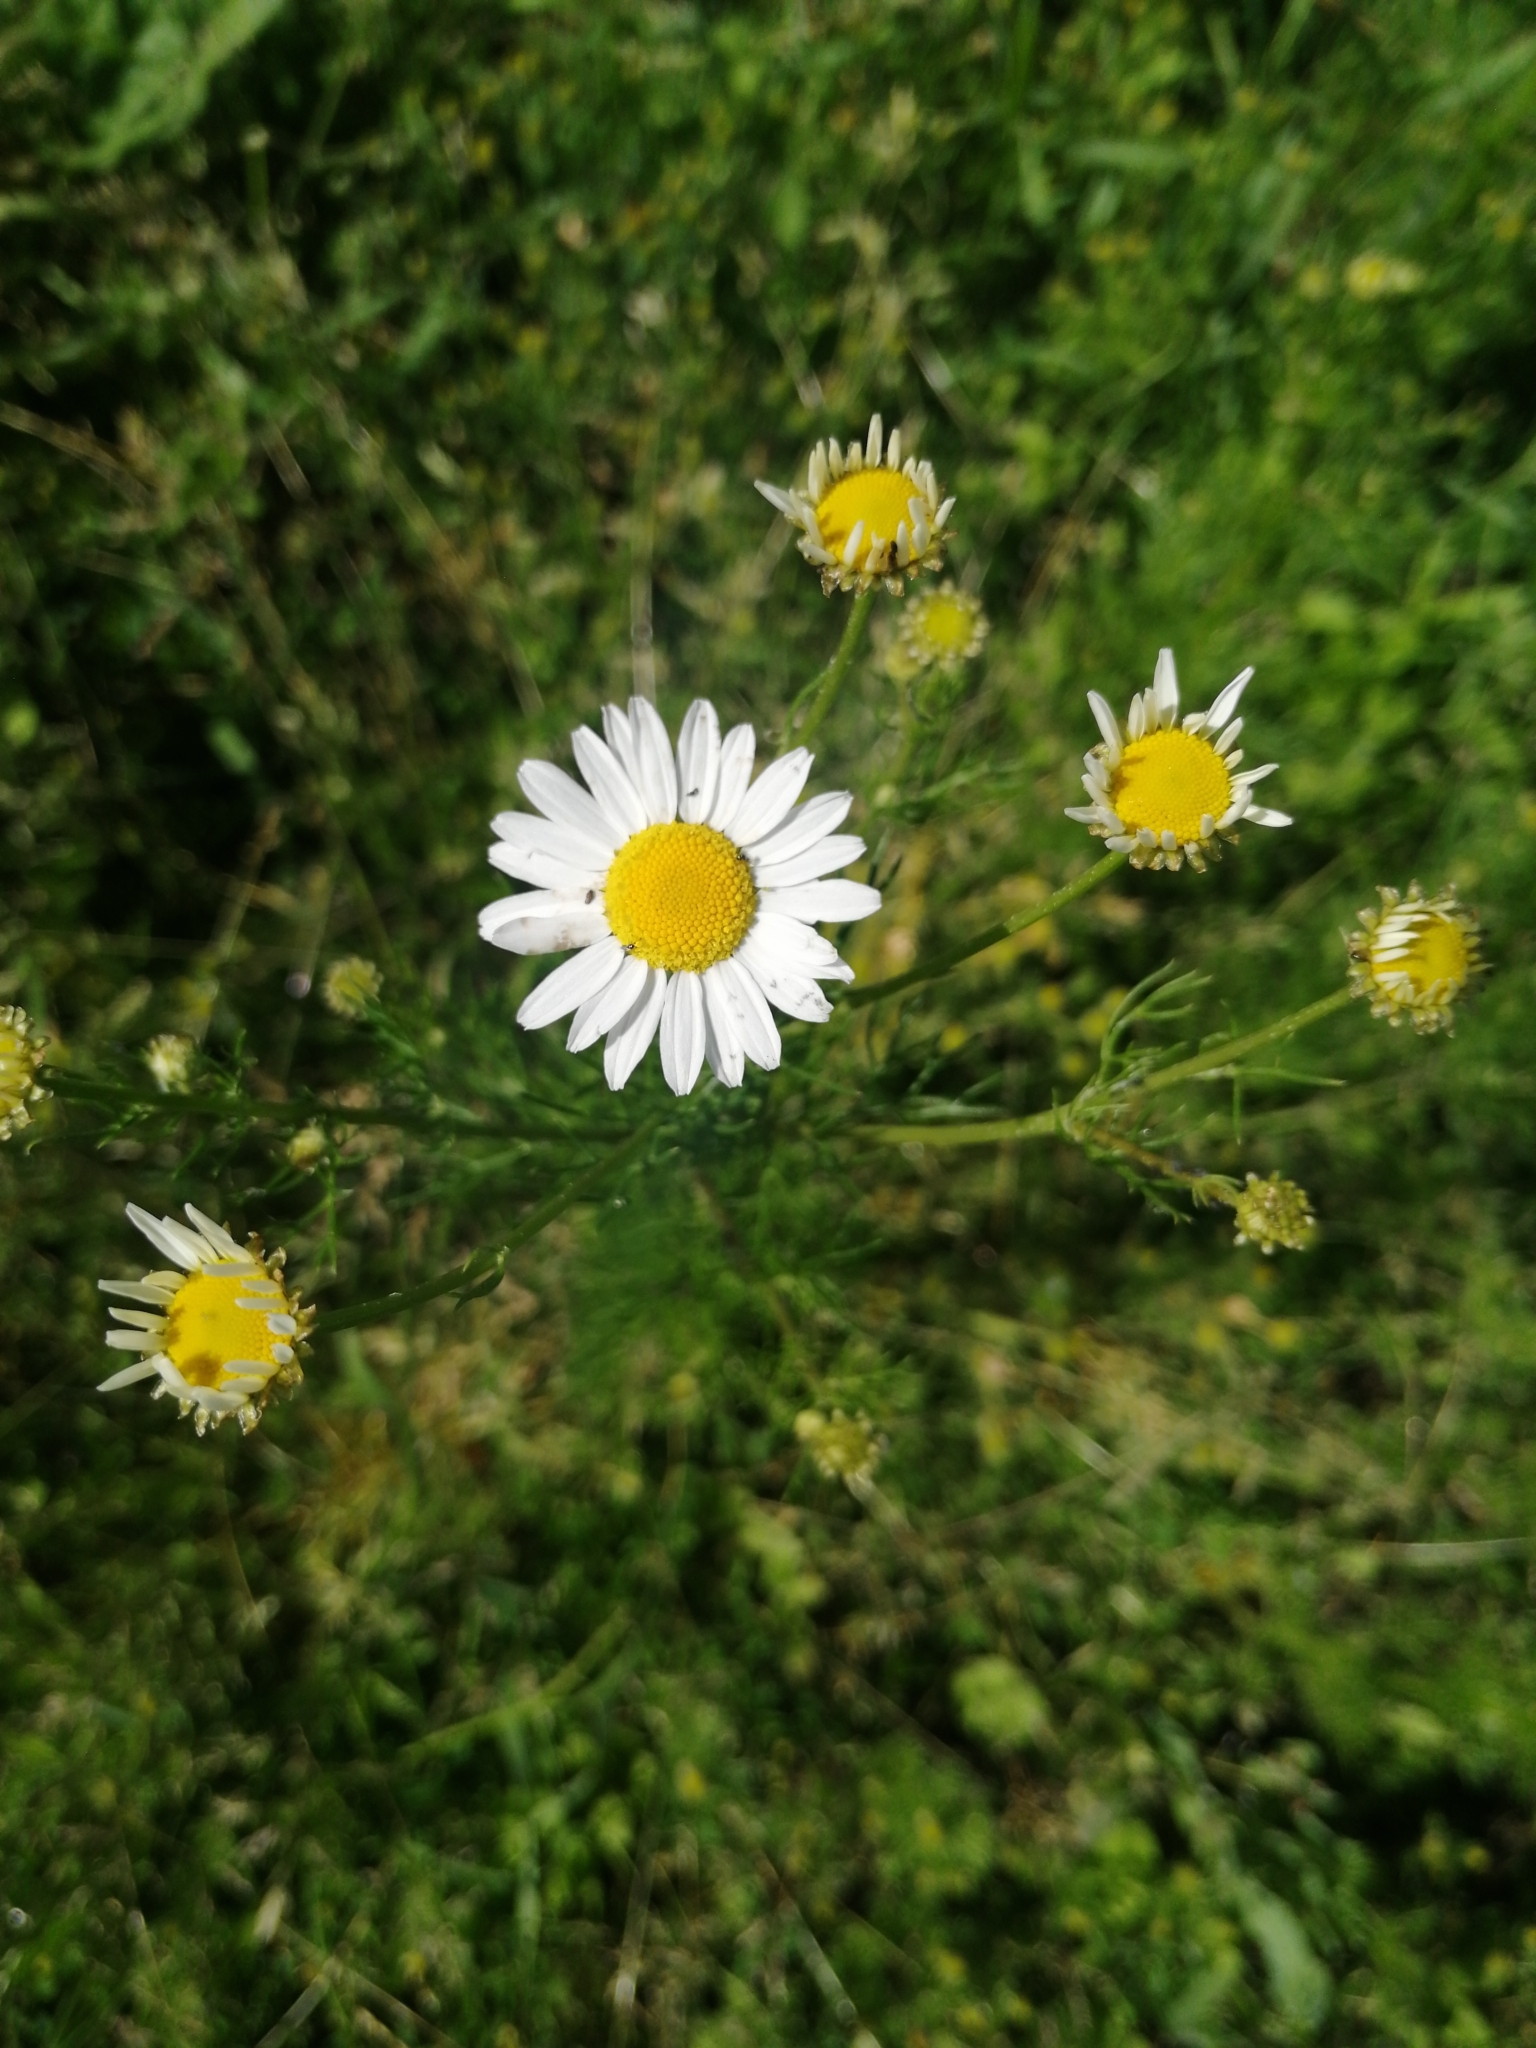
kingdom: Plantae
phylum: Tracheophyta
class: Magnoliopsida
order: Asterales
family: Asteraceae
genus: Tripleurospermum
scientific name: Tripleurospermum inodorum
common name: Scentless mayweed
